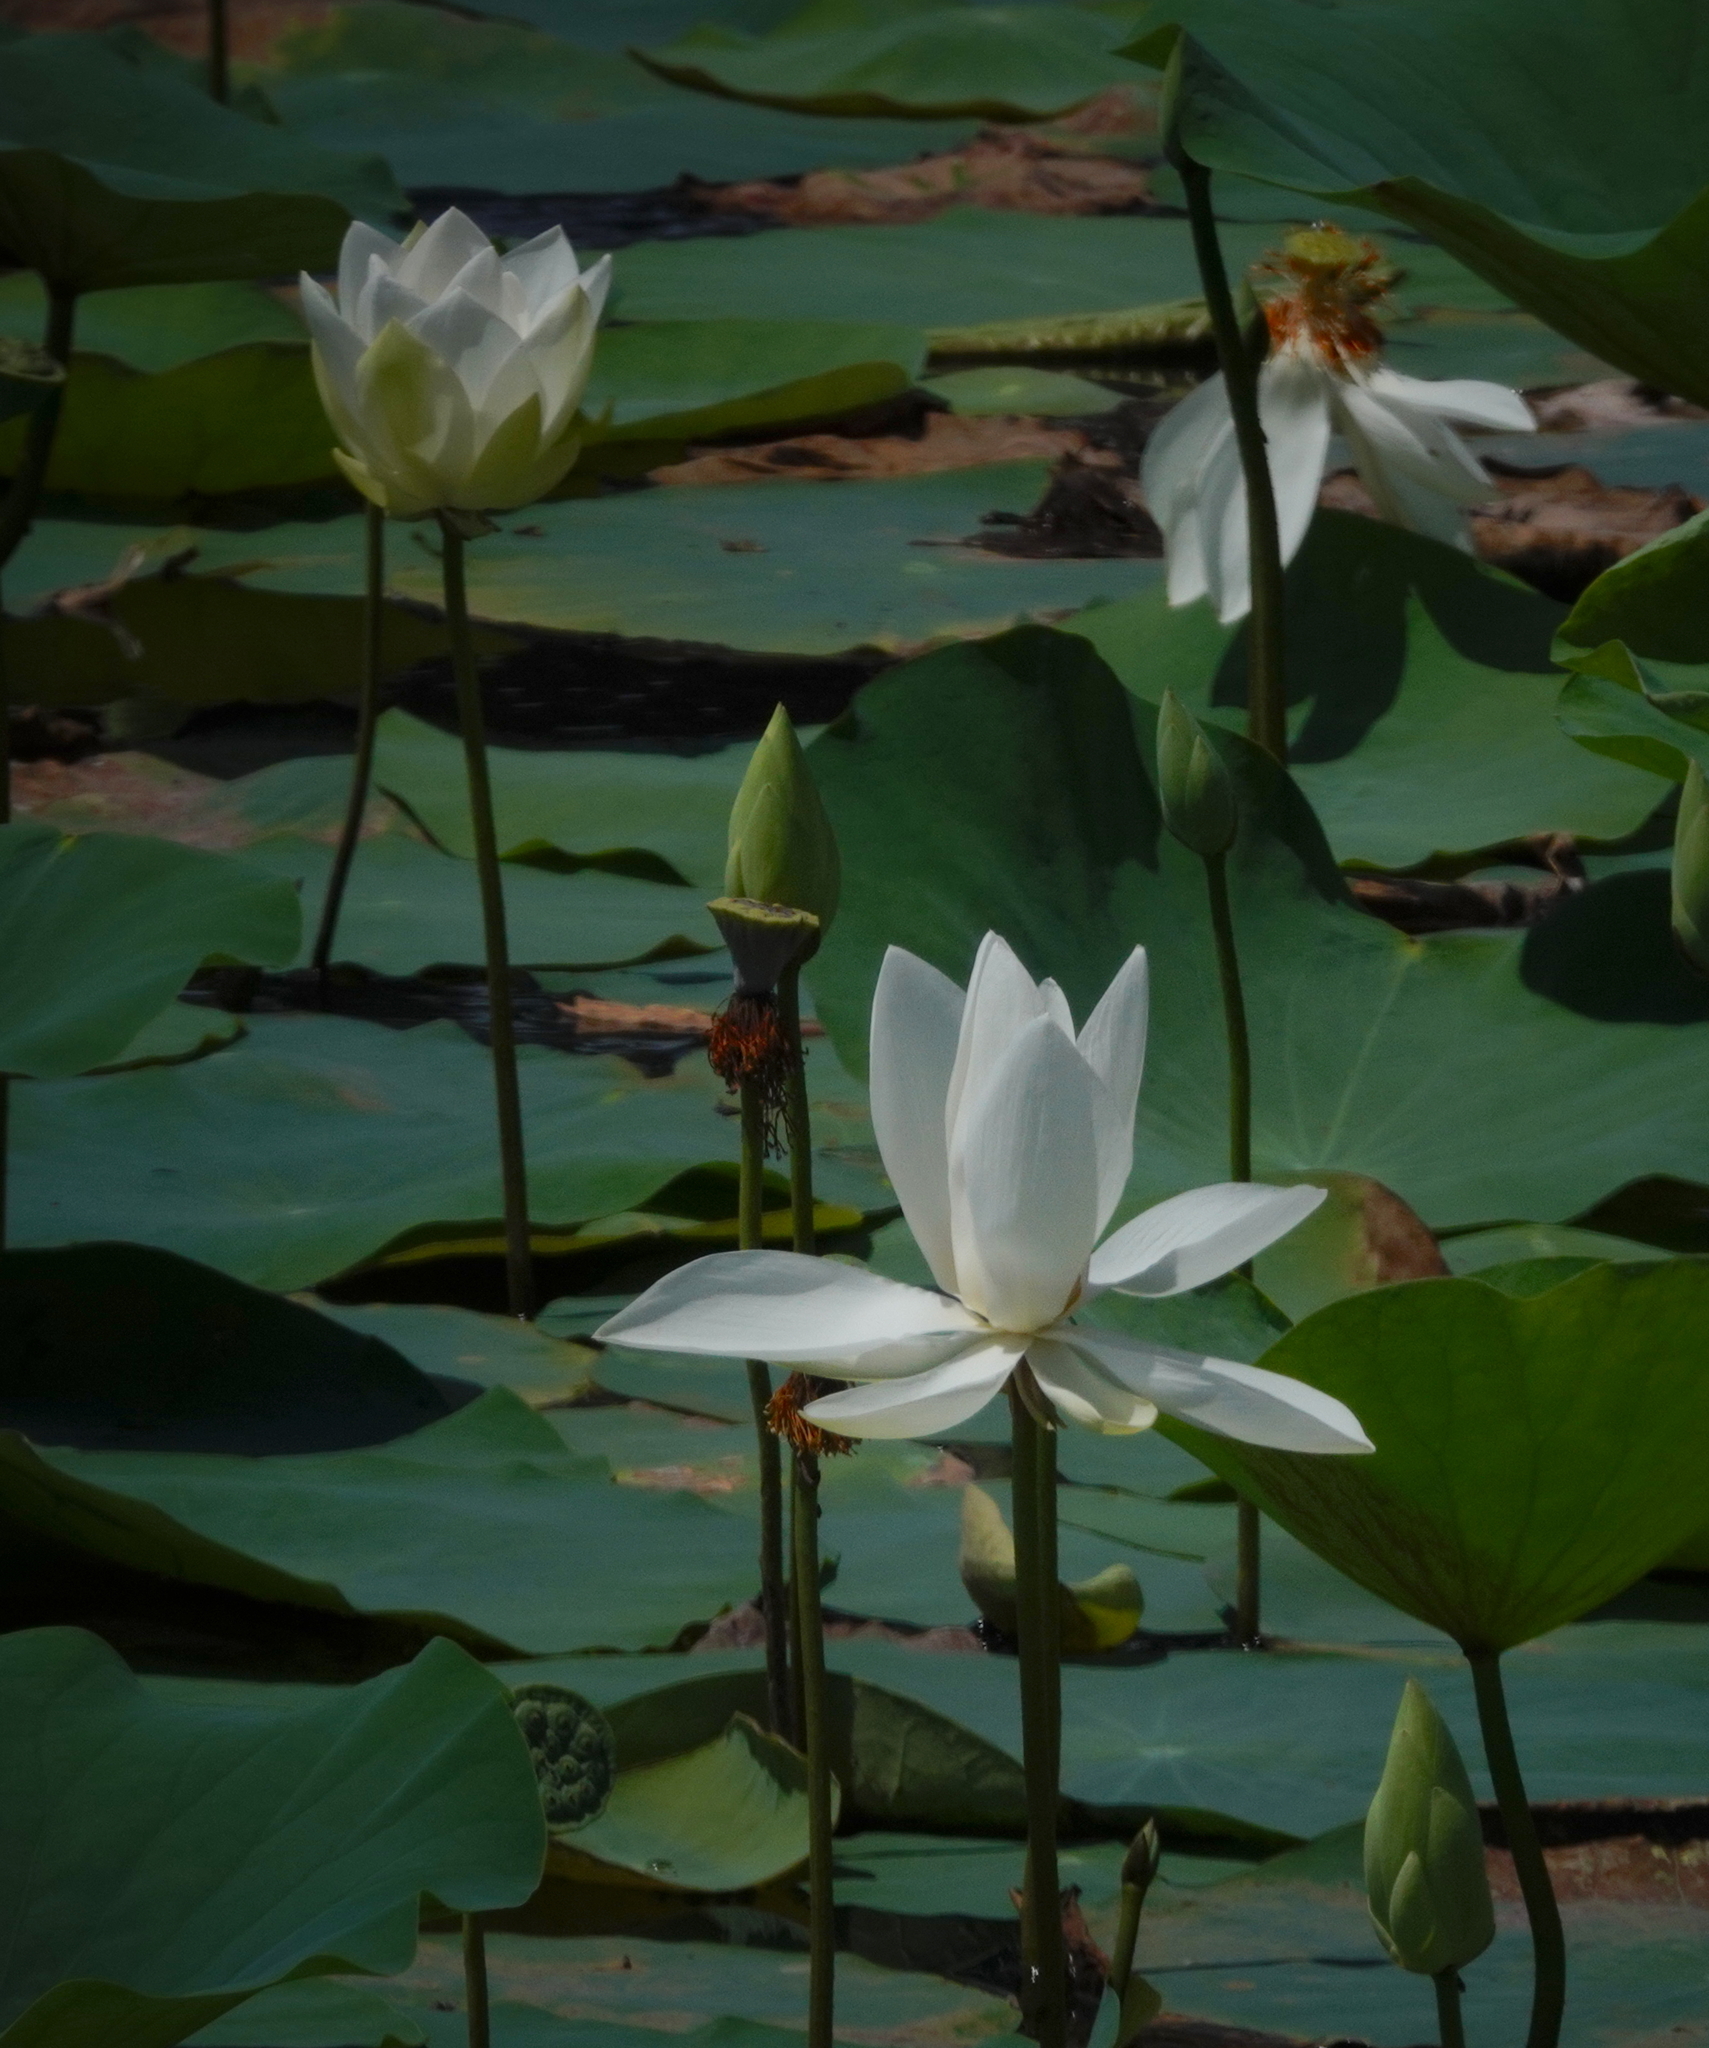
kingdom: Plantae
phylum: Tracheophyta
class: Magnoliopsida
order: Proteales
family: Nelumbonaceae
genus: Nelumbo
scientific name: Nelumbo nucifera
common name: Sacred lotus
